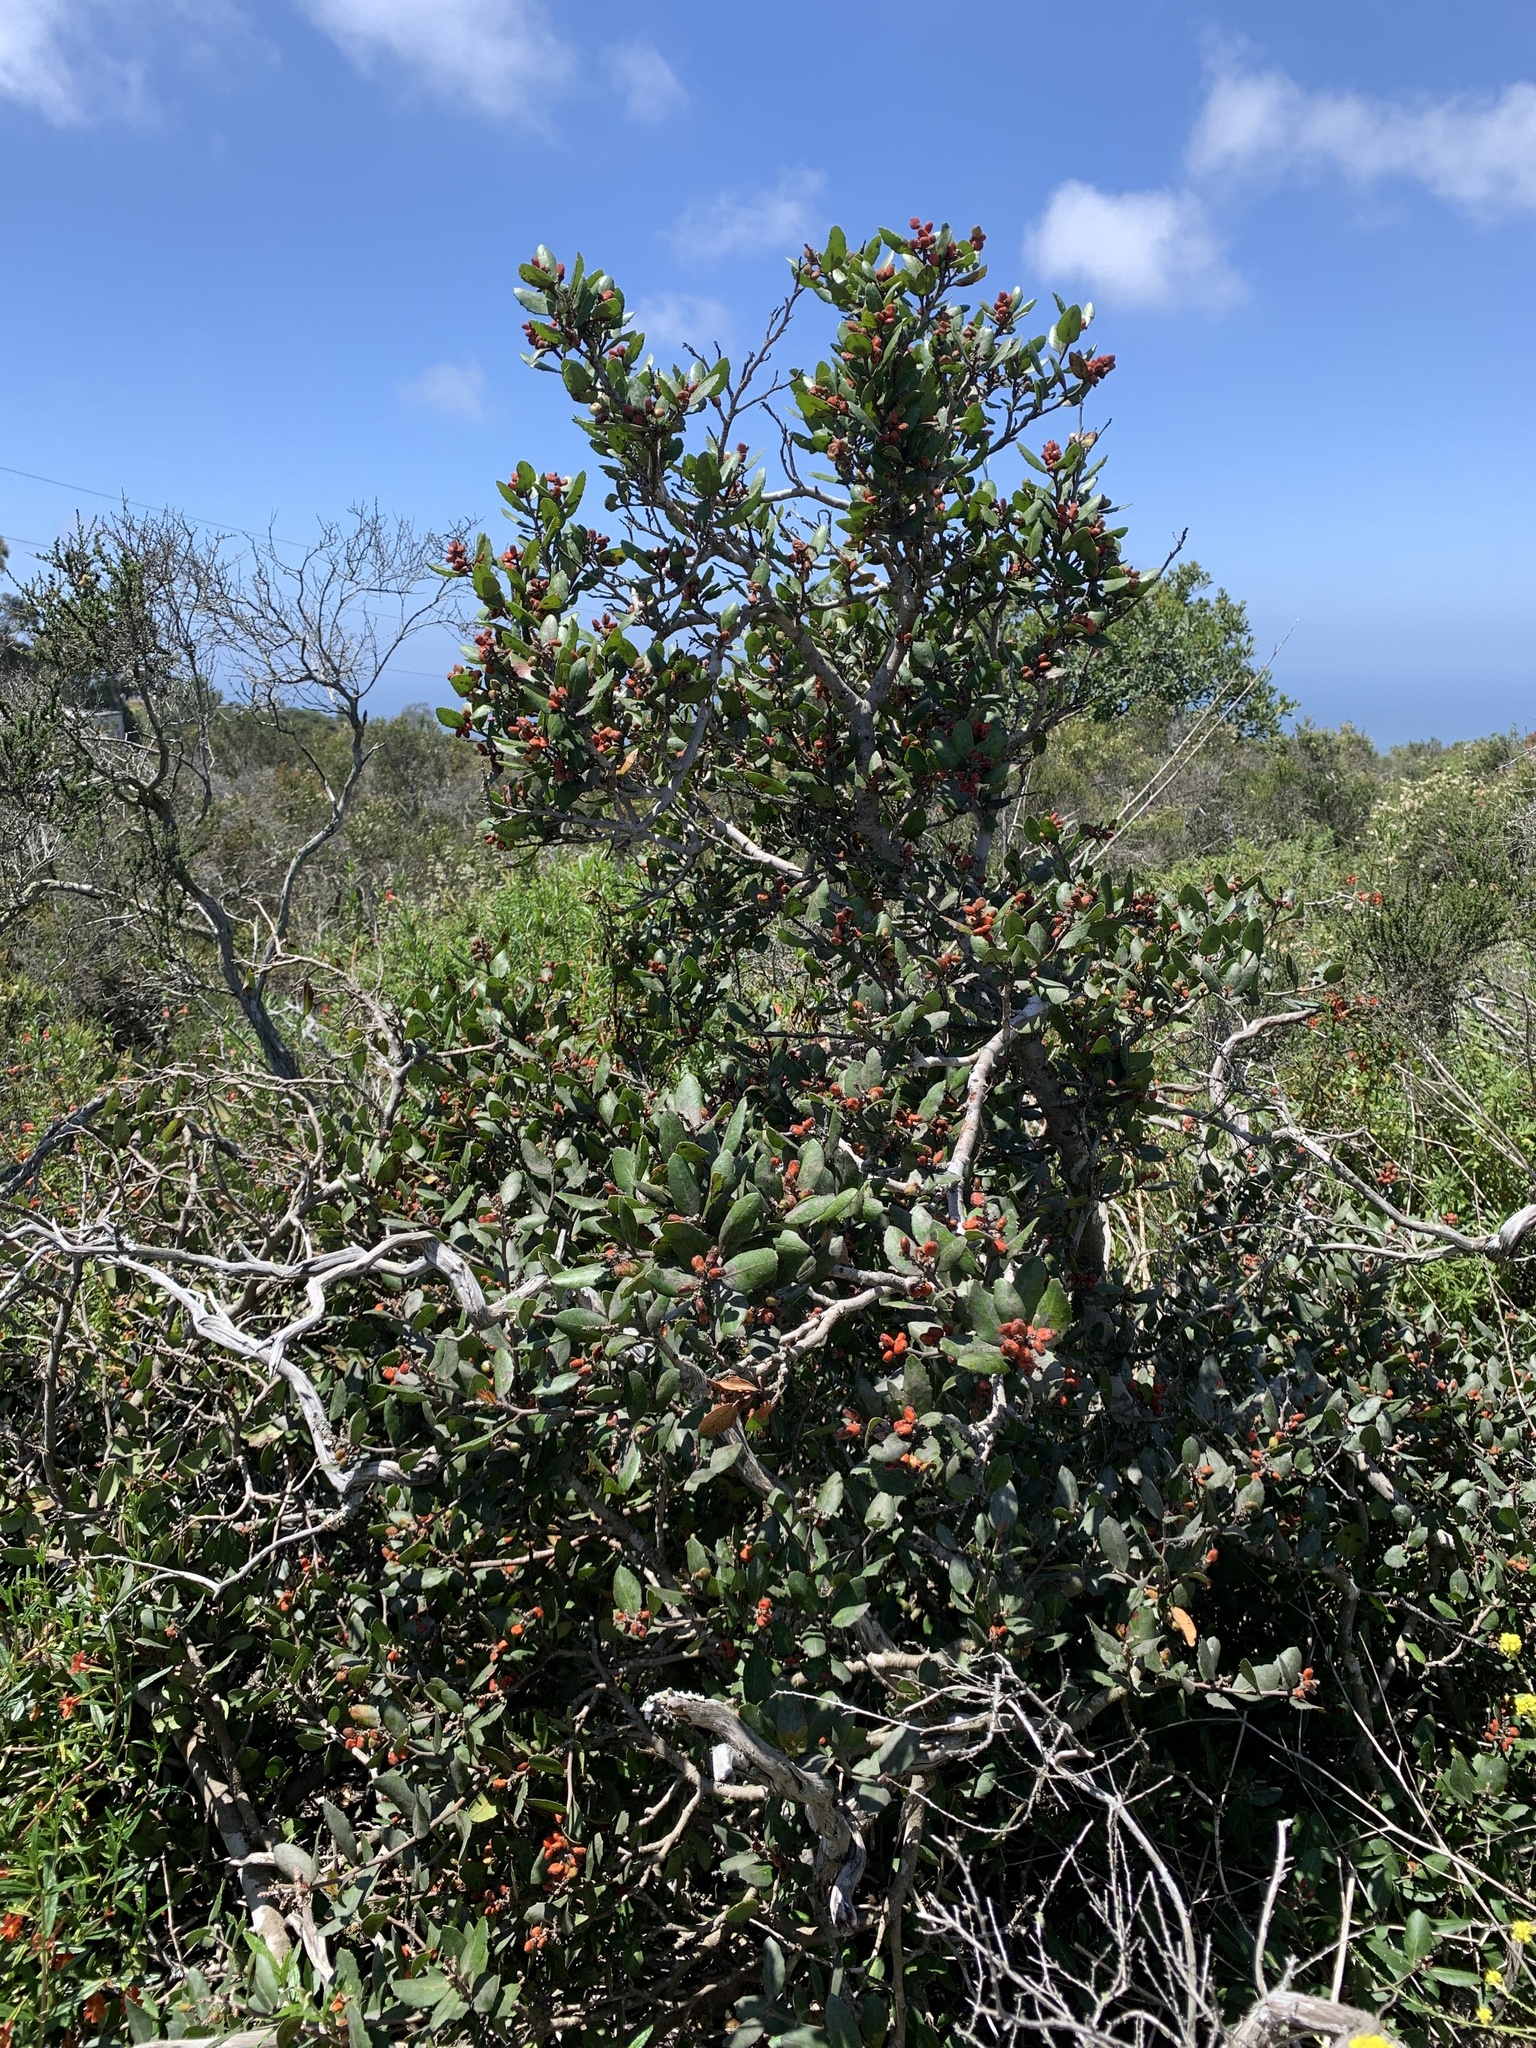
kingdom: Plantae
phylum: Tracheophyta
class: Magnoliopsida
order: Sapindales
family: Anacardiaceae
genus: Rhus
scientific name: Rhus integrifolia
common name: Lemonade sumac
